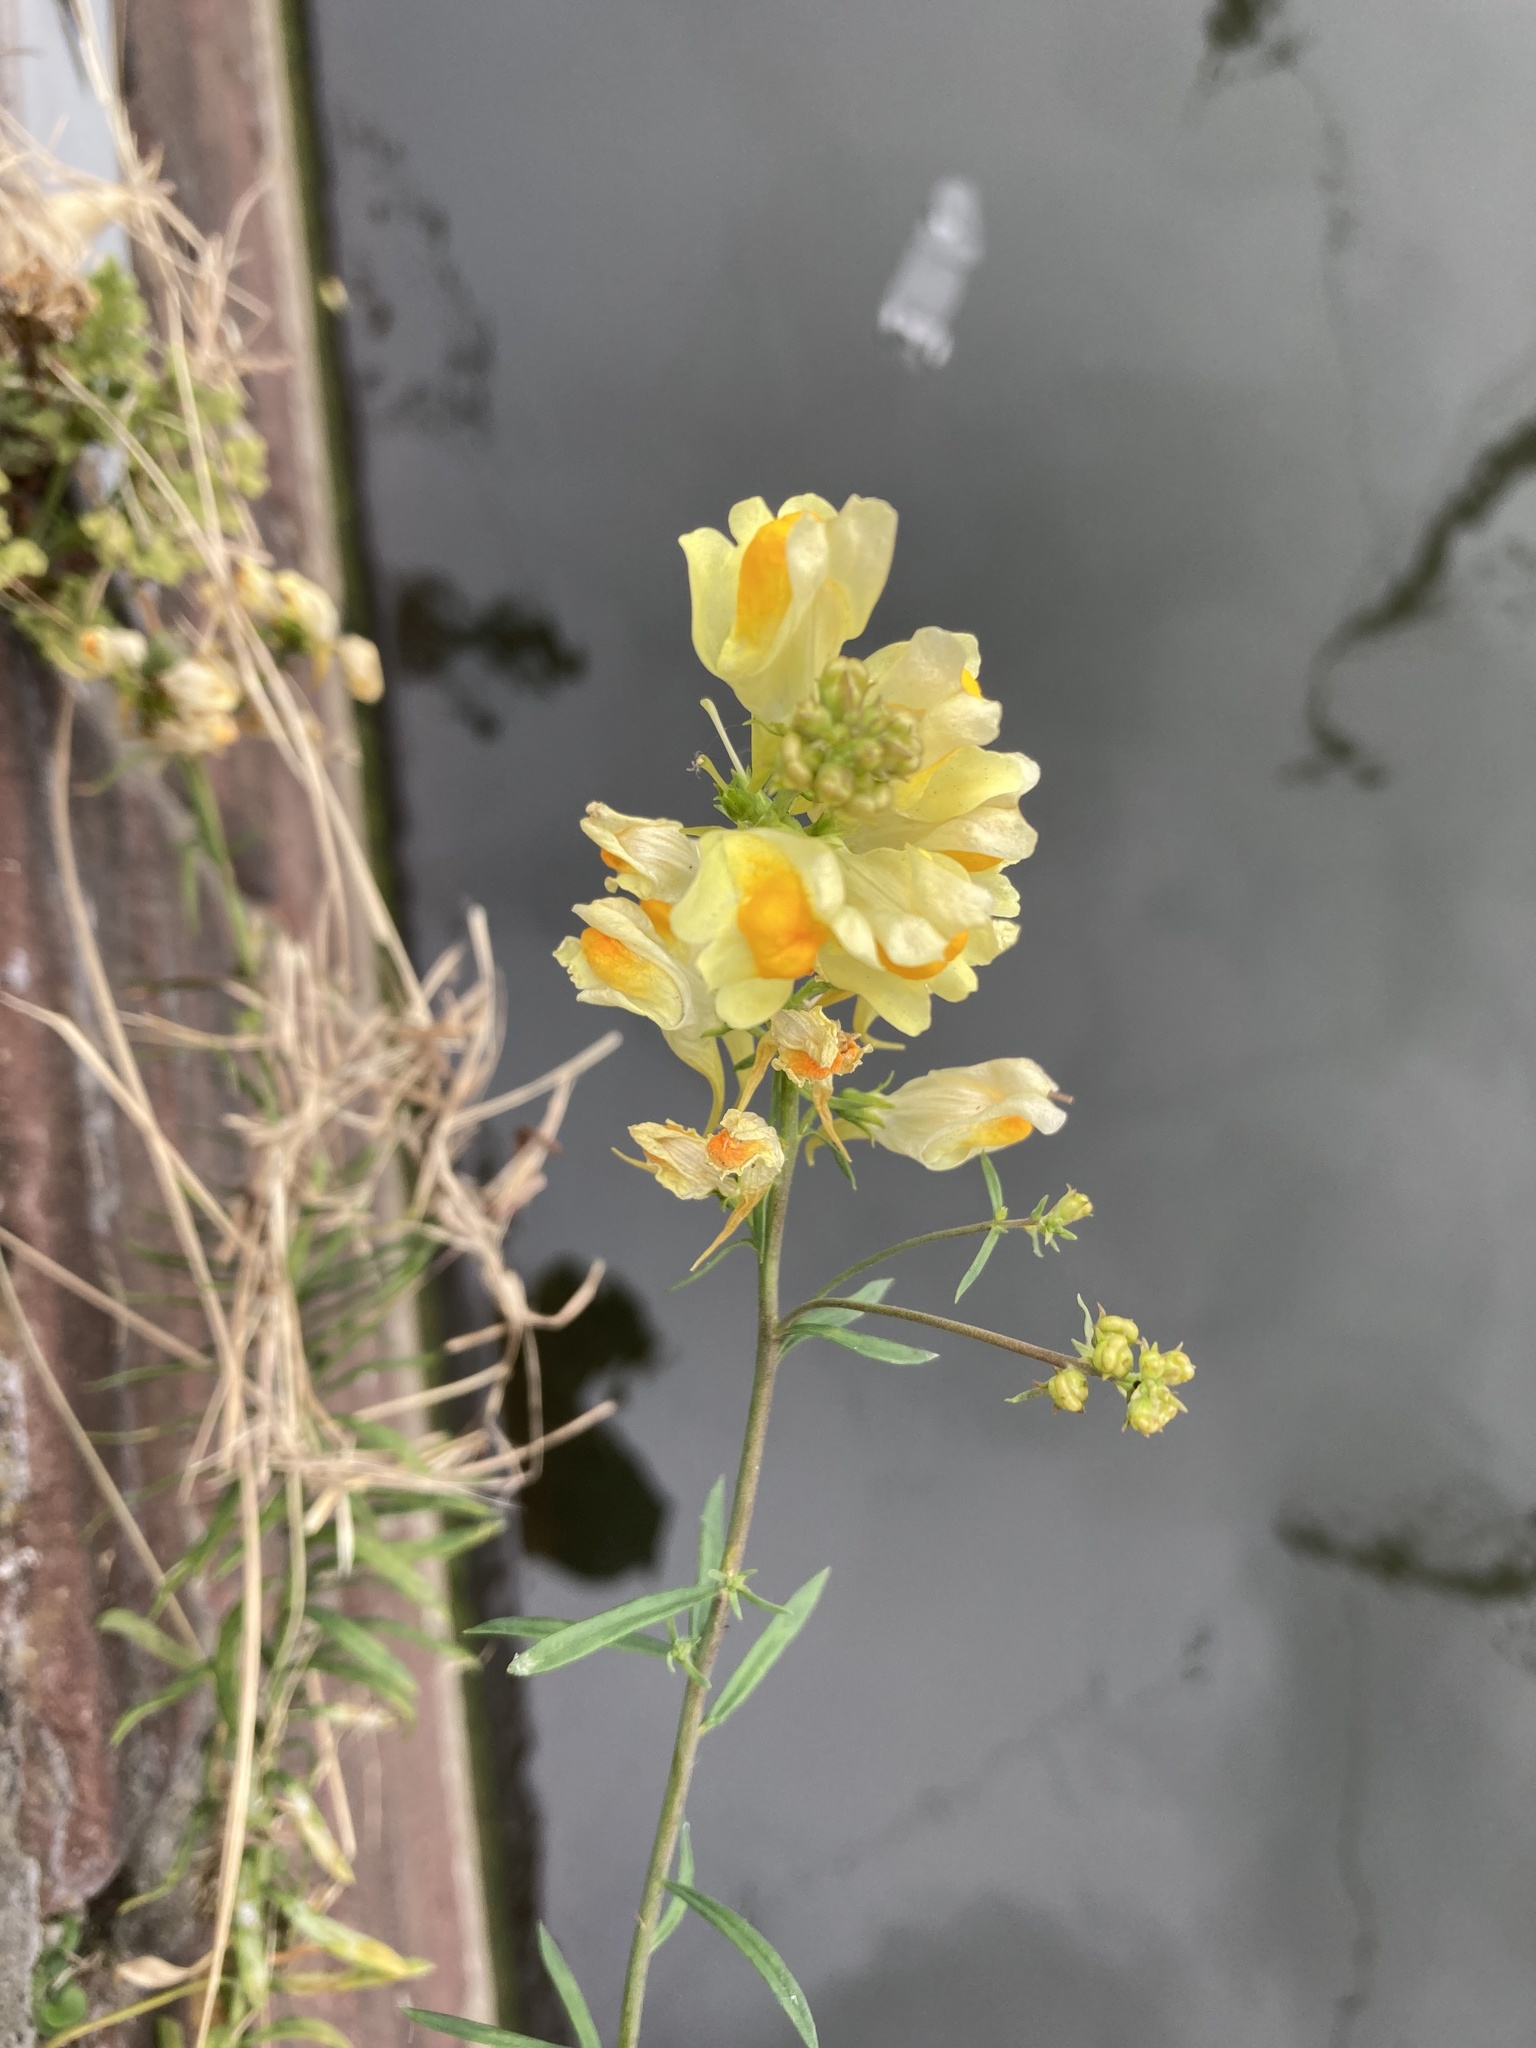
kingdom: Plantae
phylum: Tracheophyta
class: Magnoliopsida
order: Lamiales
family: Plantaginaceae
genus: Linaria
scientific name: Linaria vulgaris
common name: Butter and eggs
